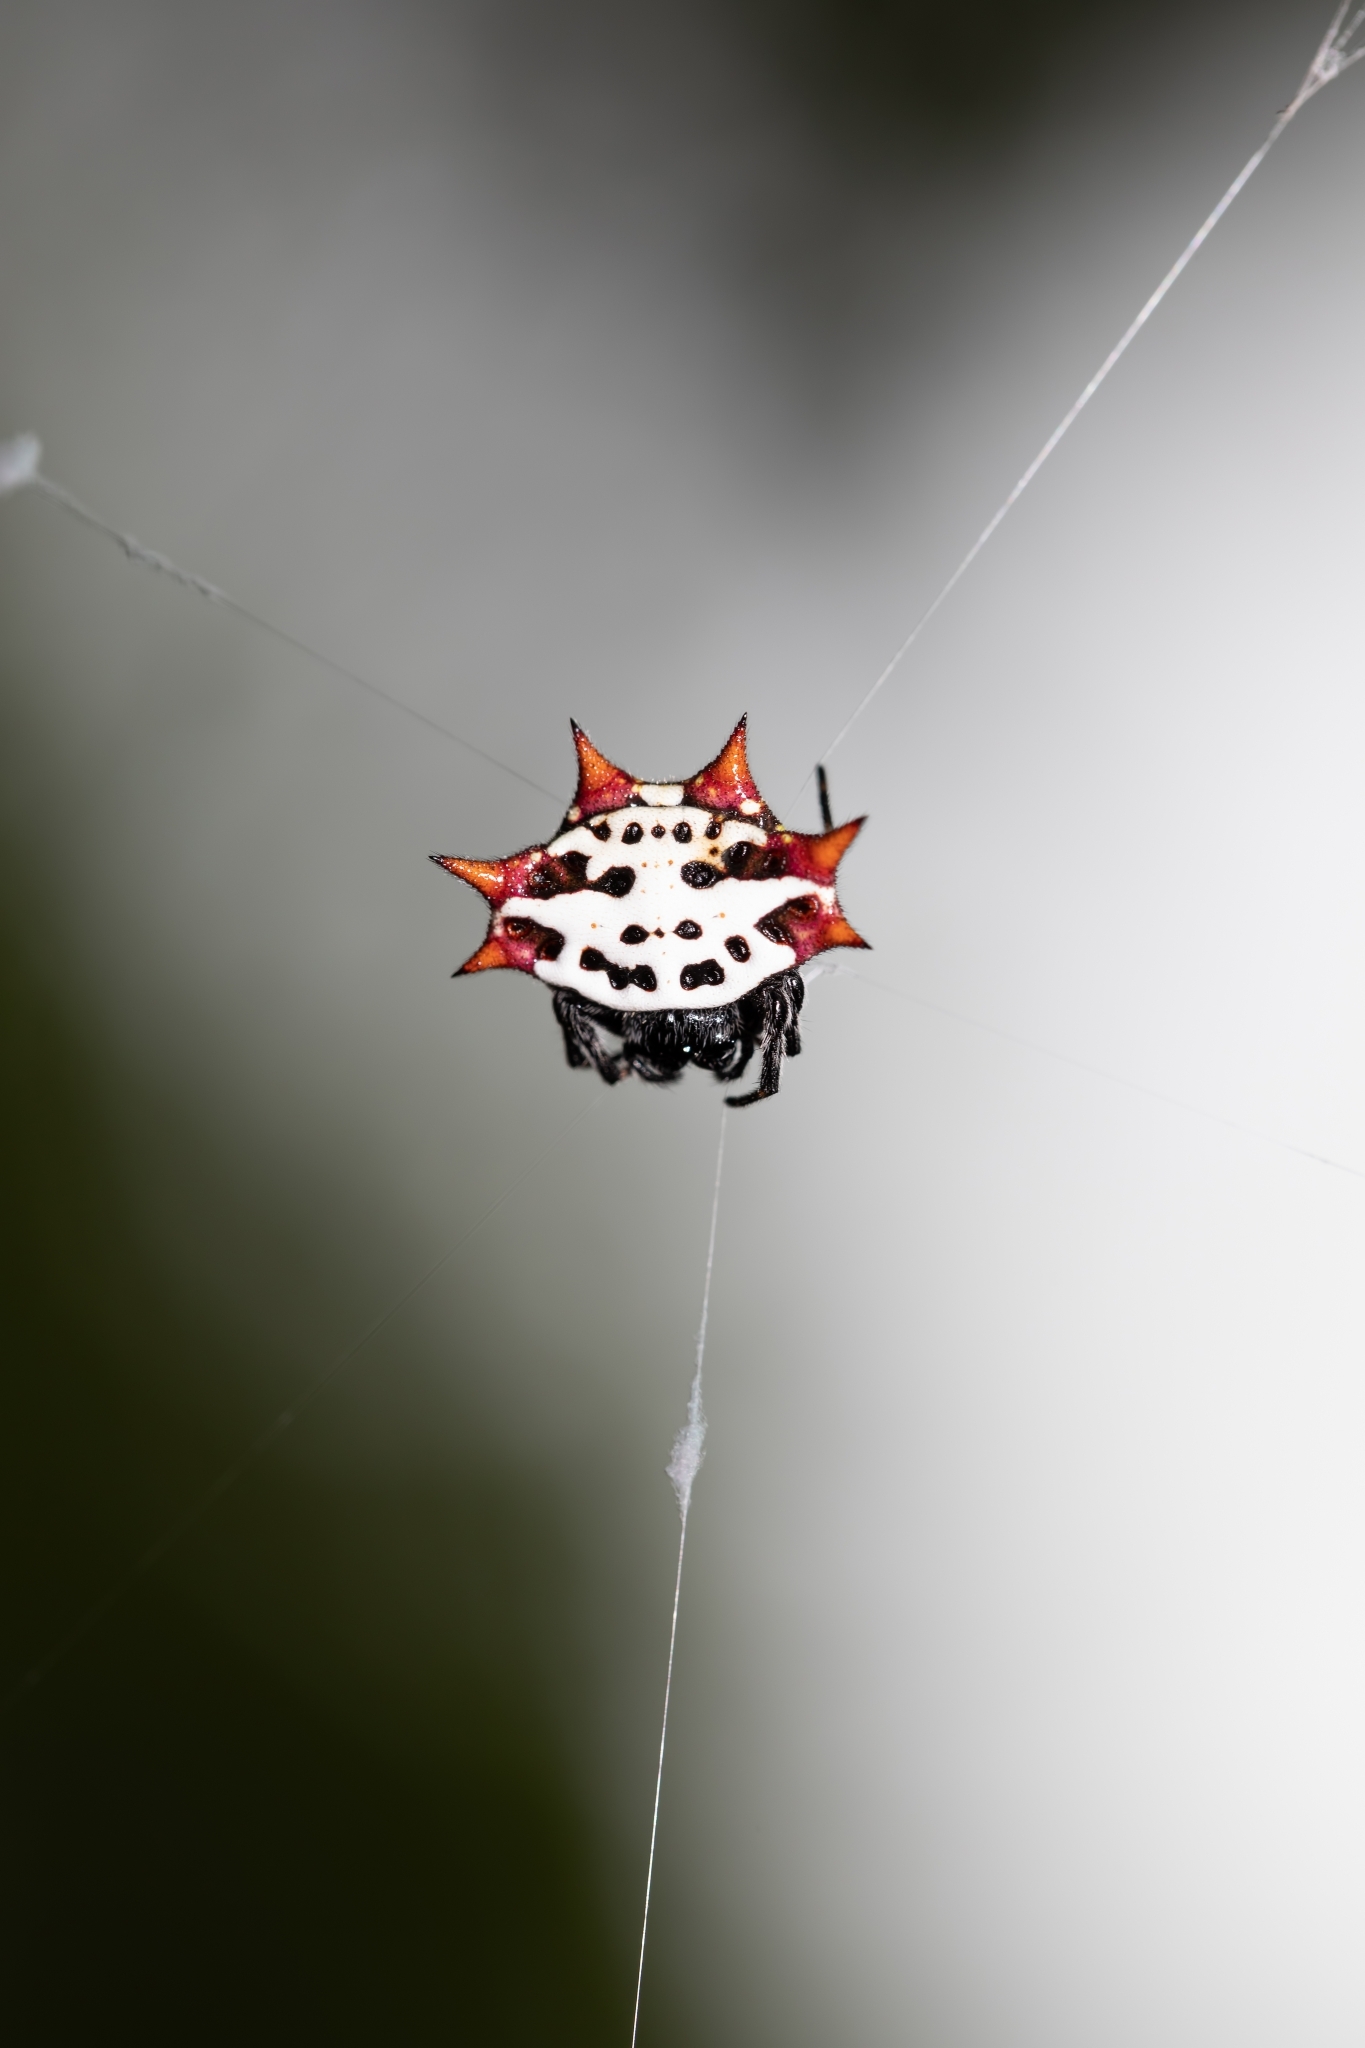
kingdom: Animalia
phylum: Arthropoda
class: Arachnida
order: Araneae
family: Araneidae
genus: Gasteracantha
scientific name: Gasteracantha cancriformis
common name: Orb weavers
